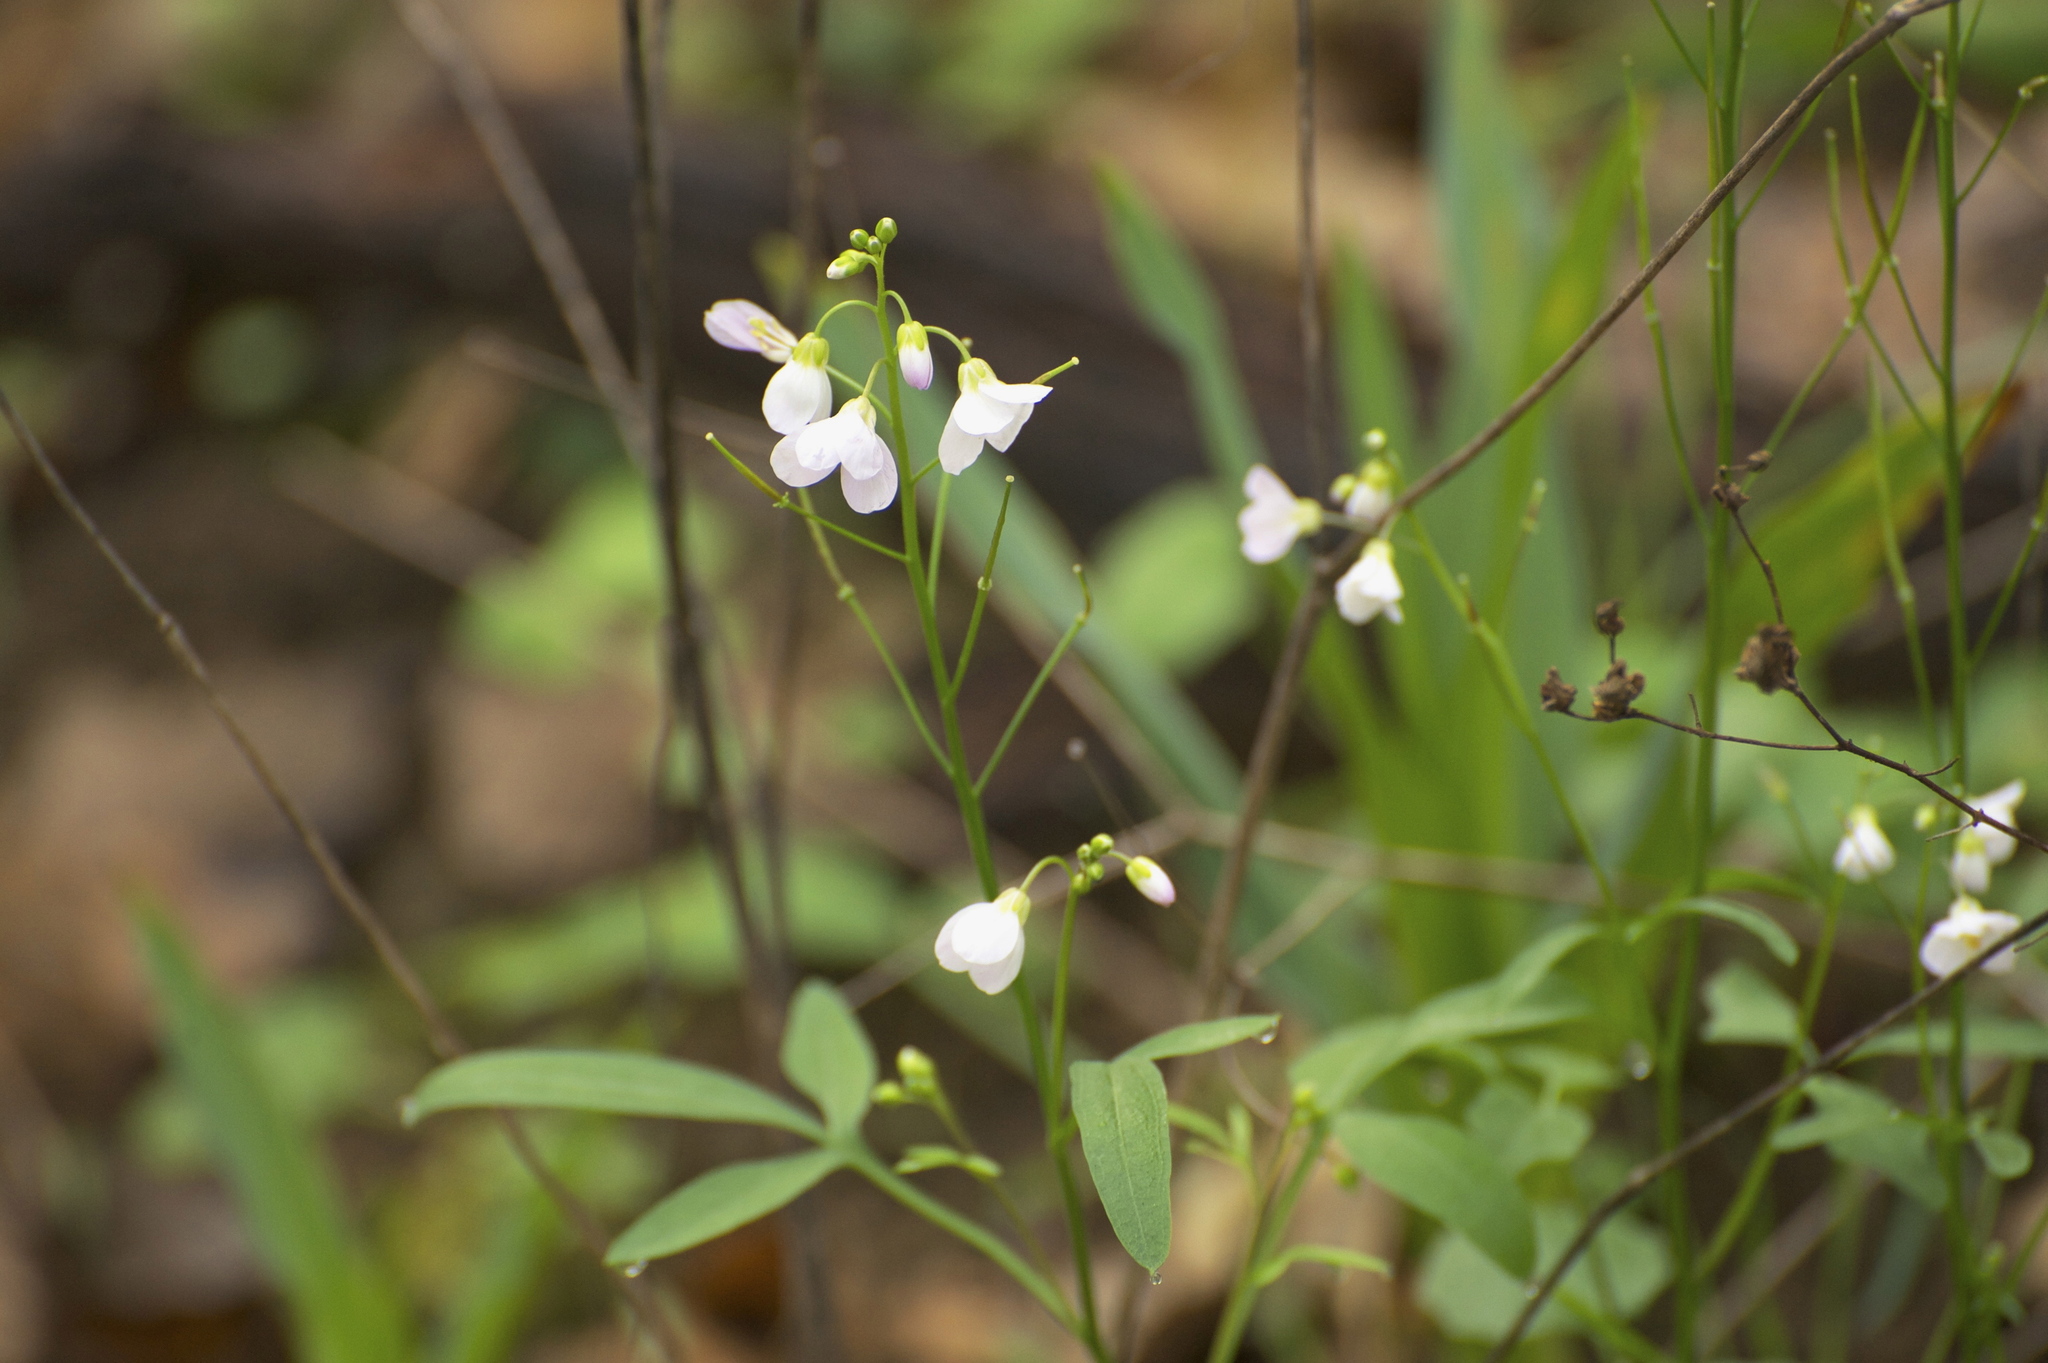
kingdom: Plantae
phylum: Tracheophyta
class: Magnoliopsida
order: Brassicales
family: Brassicaceae
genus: Cardamine
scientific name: Cardamine californica
